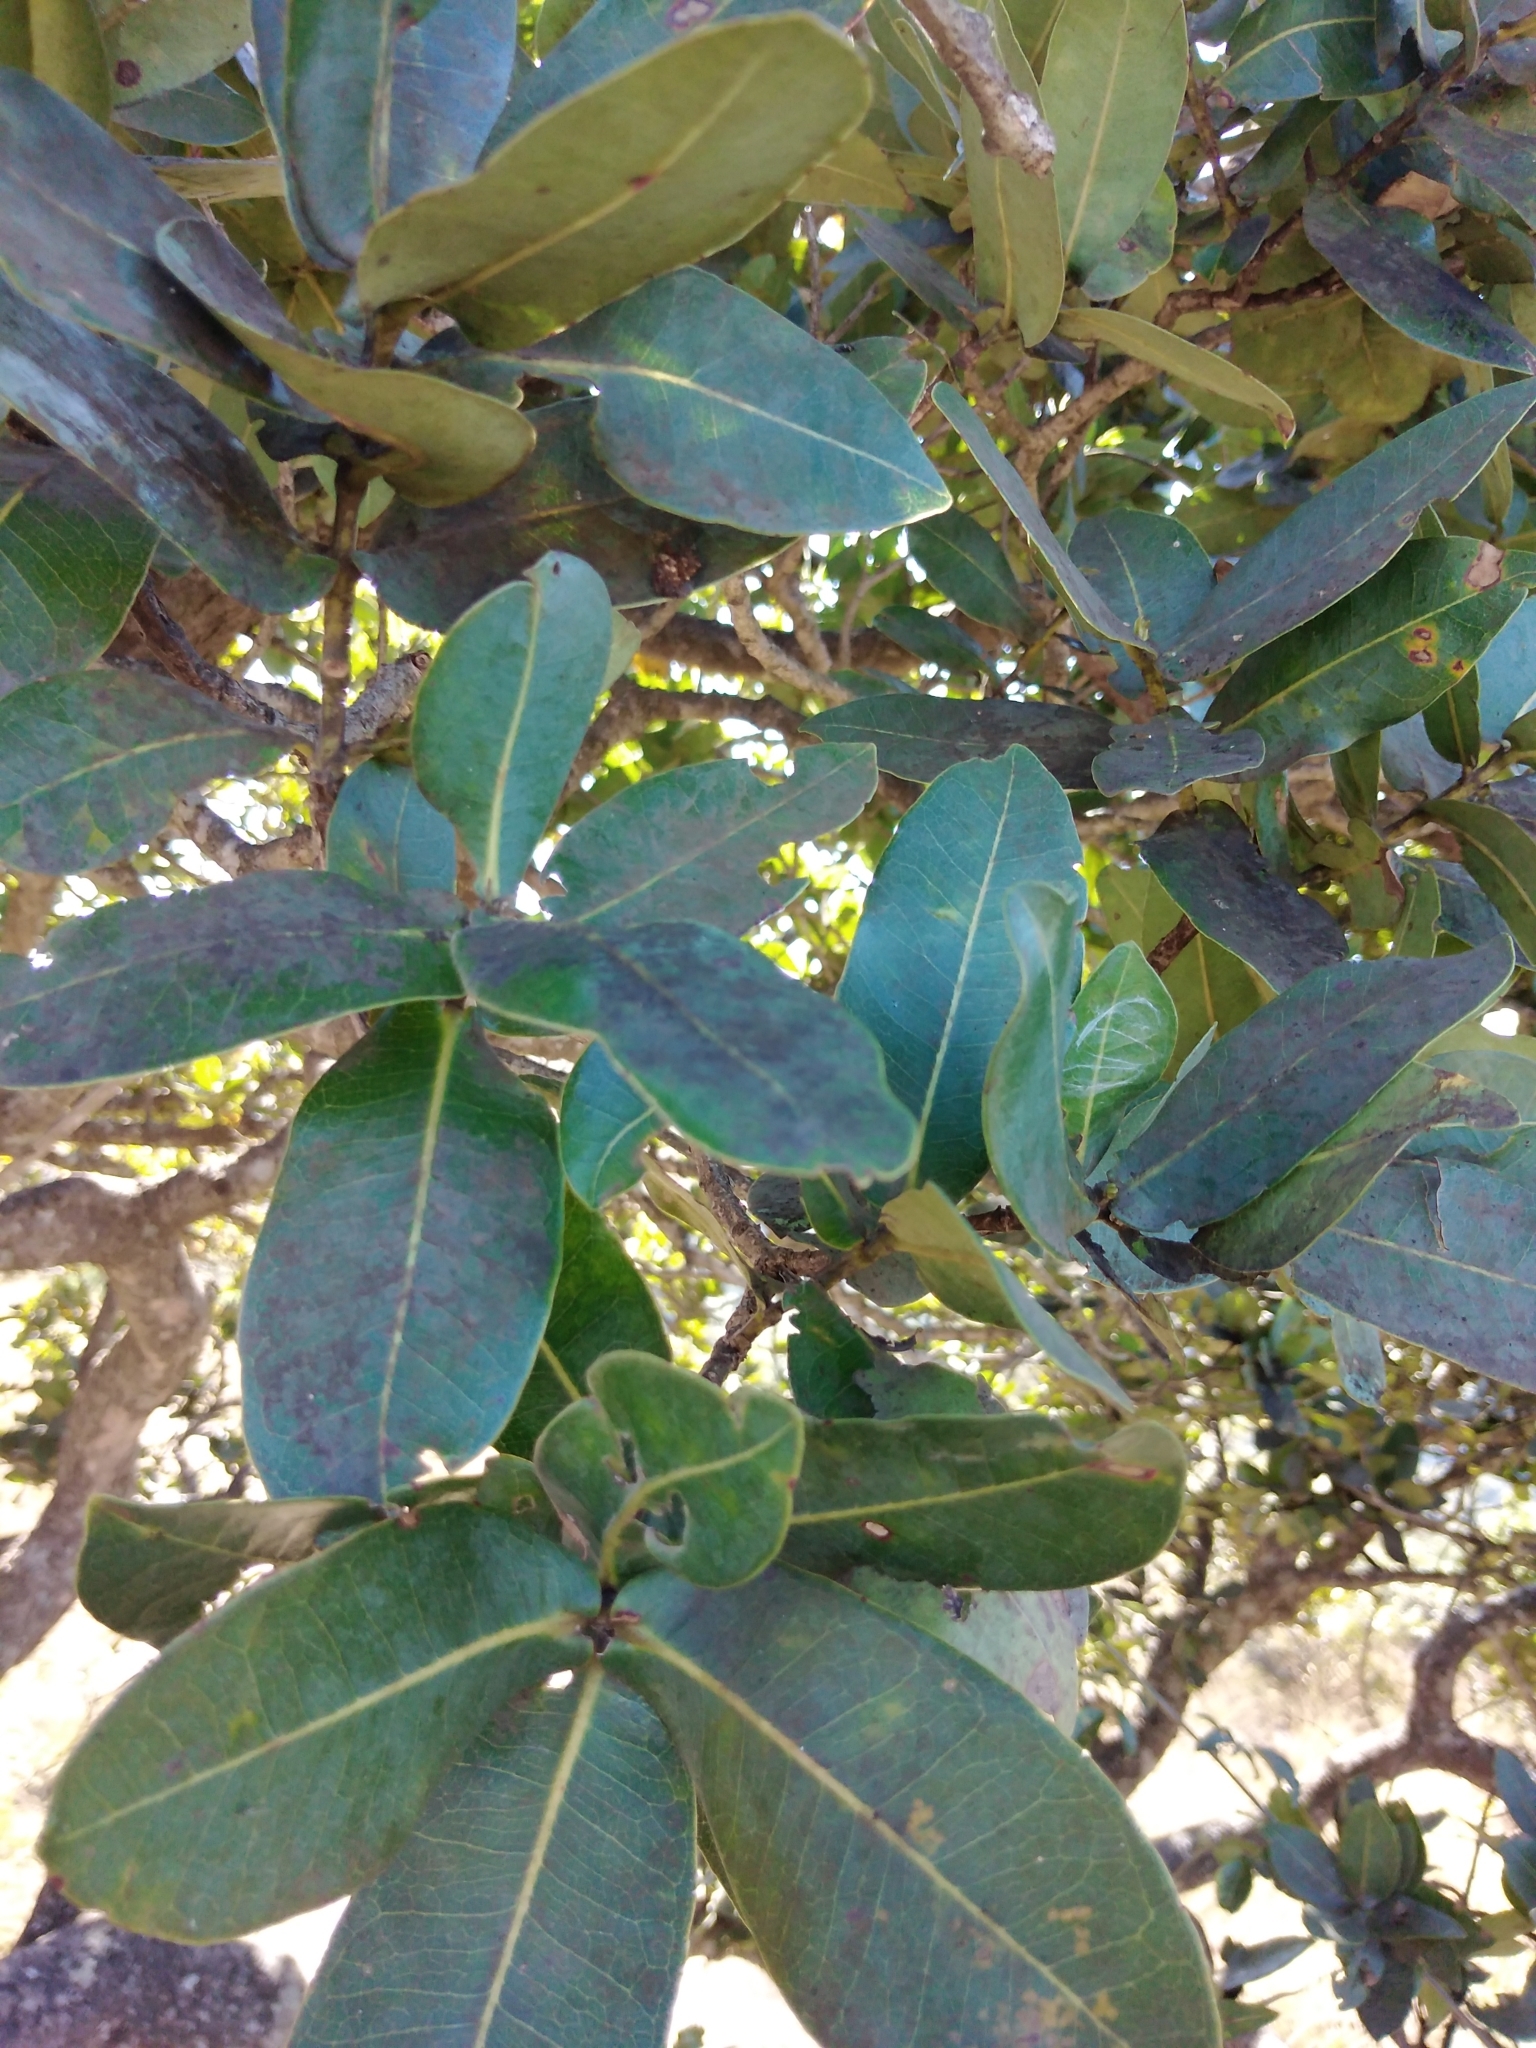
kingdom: Plantae
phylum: Tracheophyta
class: Magnoliopsida
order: Myrtales
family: Myrtaceae
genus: Syzygium
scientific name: Syzygium cordatum
